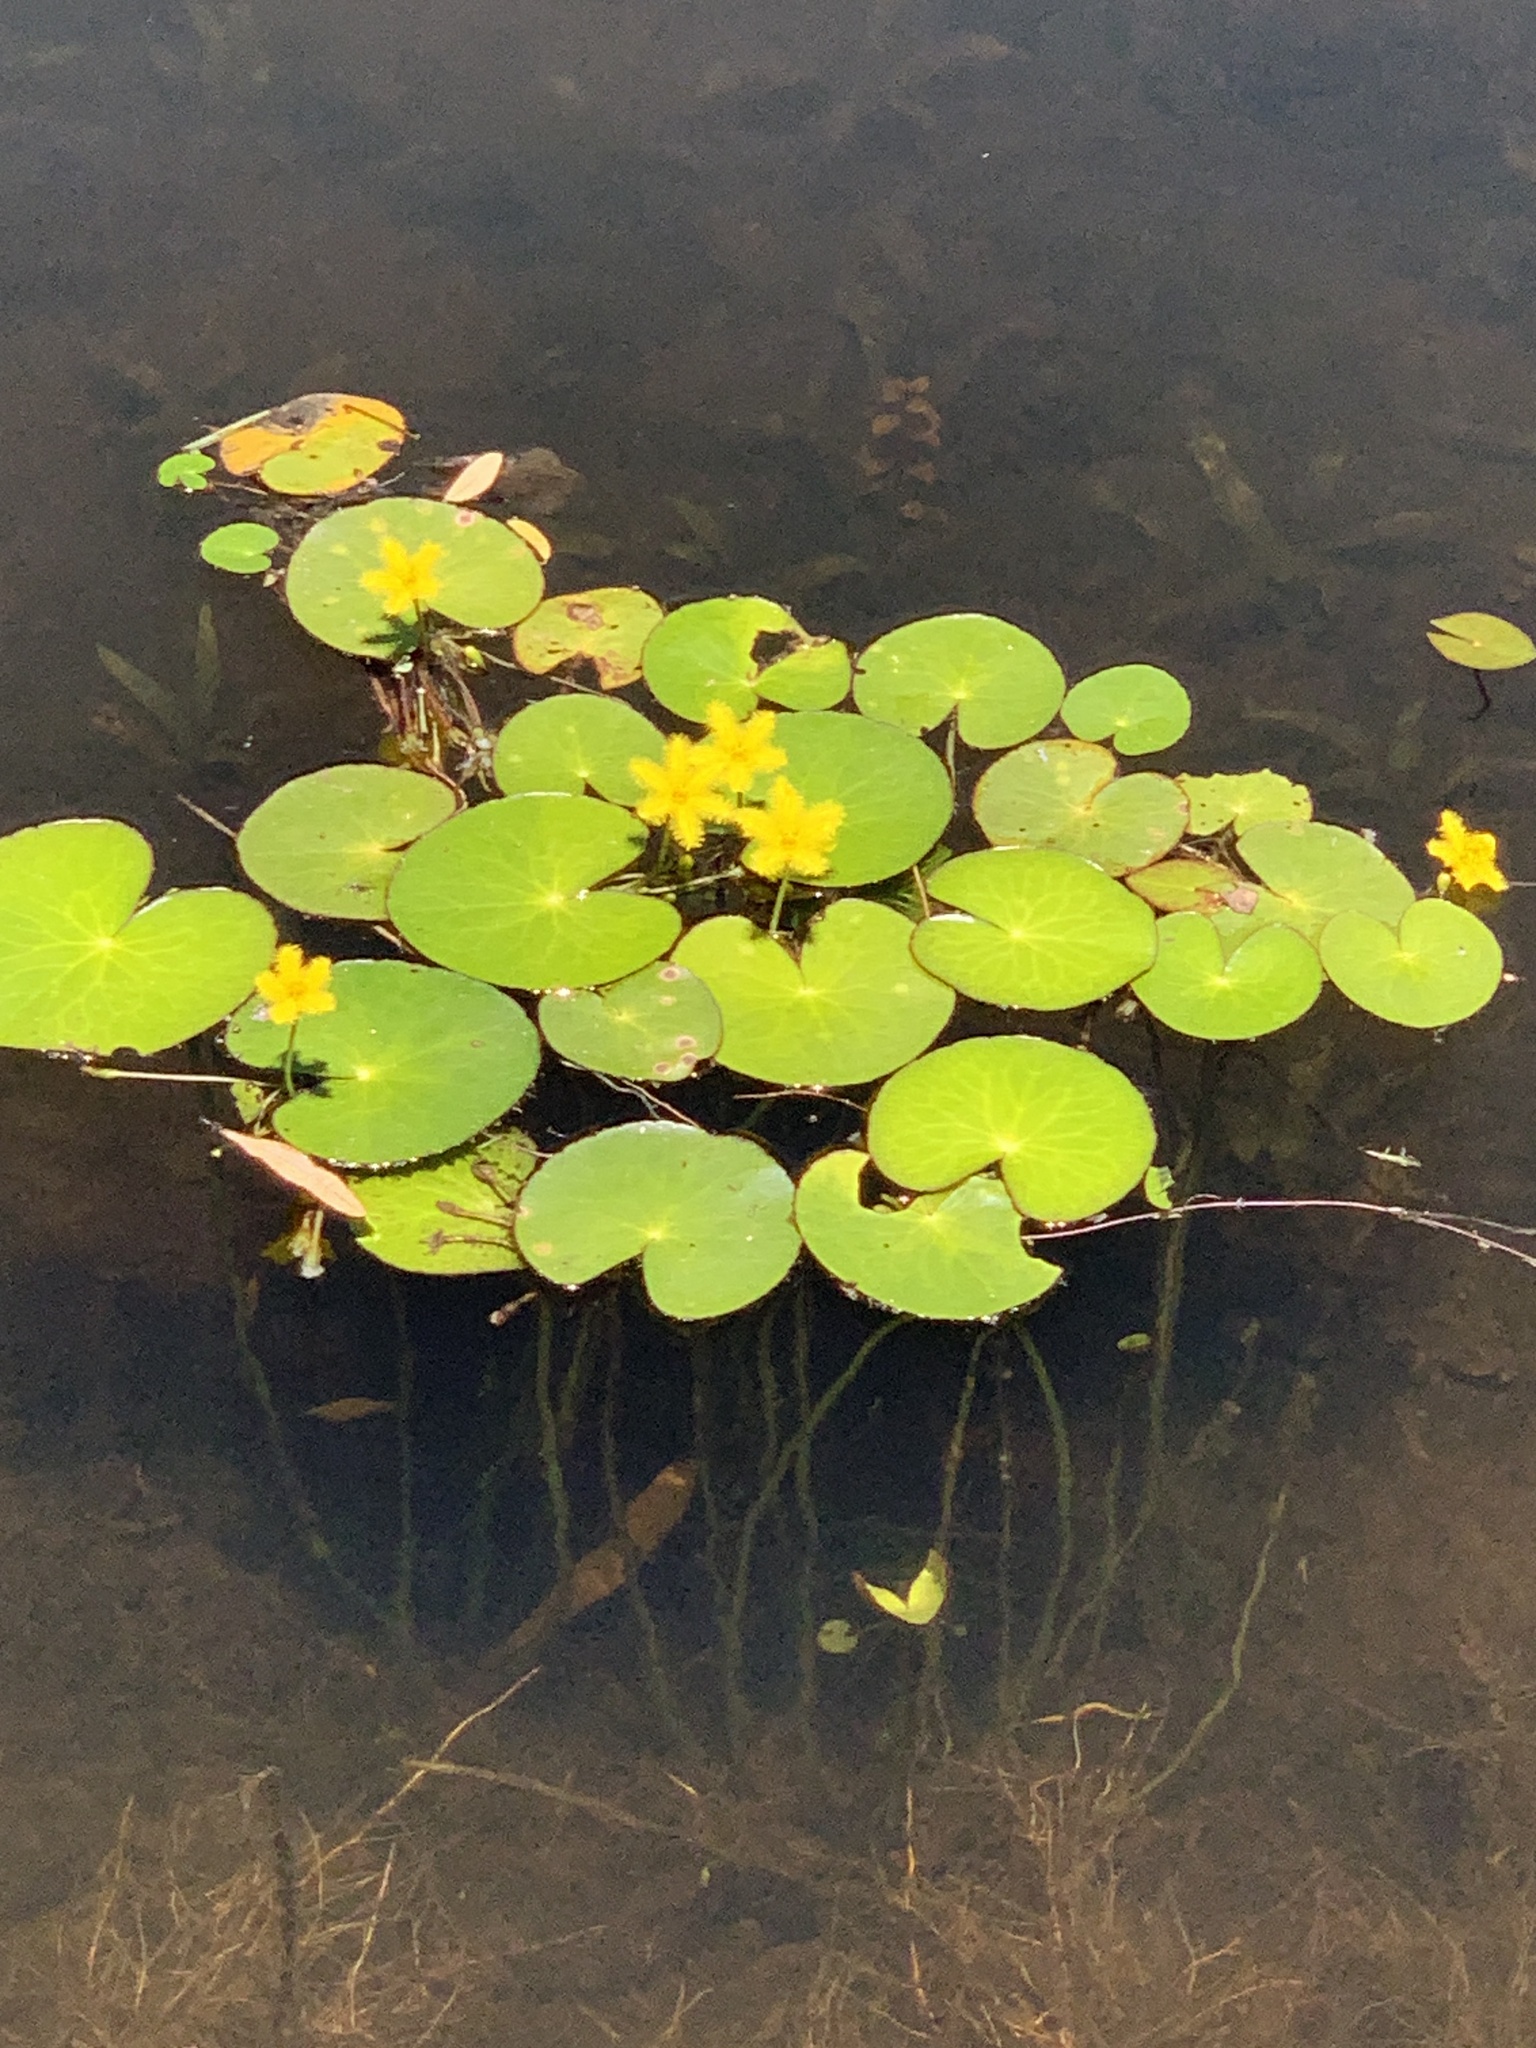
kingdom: Plantae
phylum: Tracheophyta
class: Magnoliopsida
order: Asterales
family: Menyanthaceae
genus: Nymphoides
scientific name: Nymphoides thunbergiana
